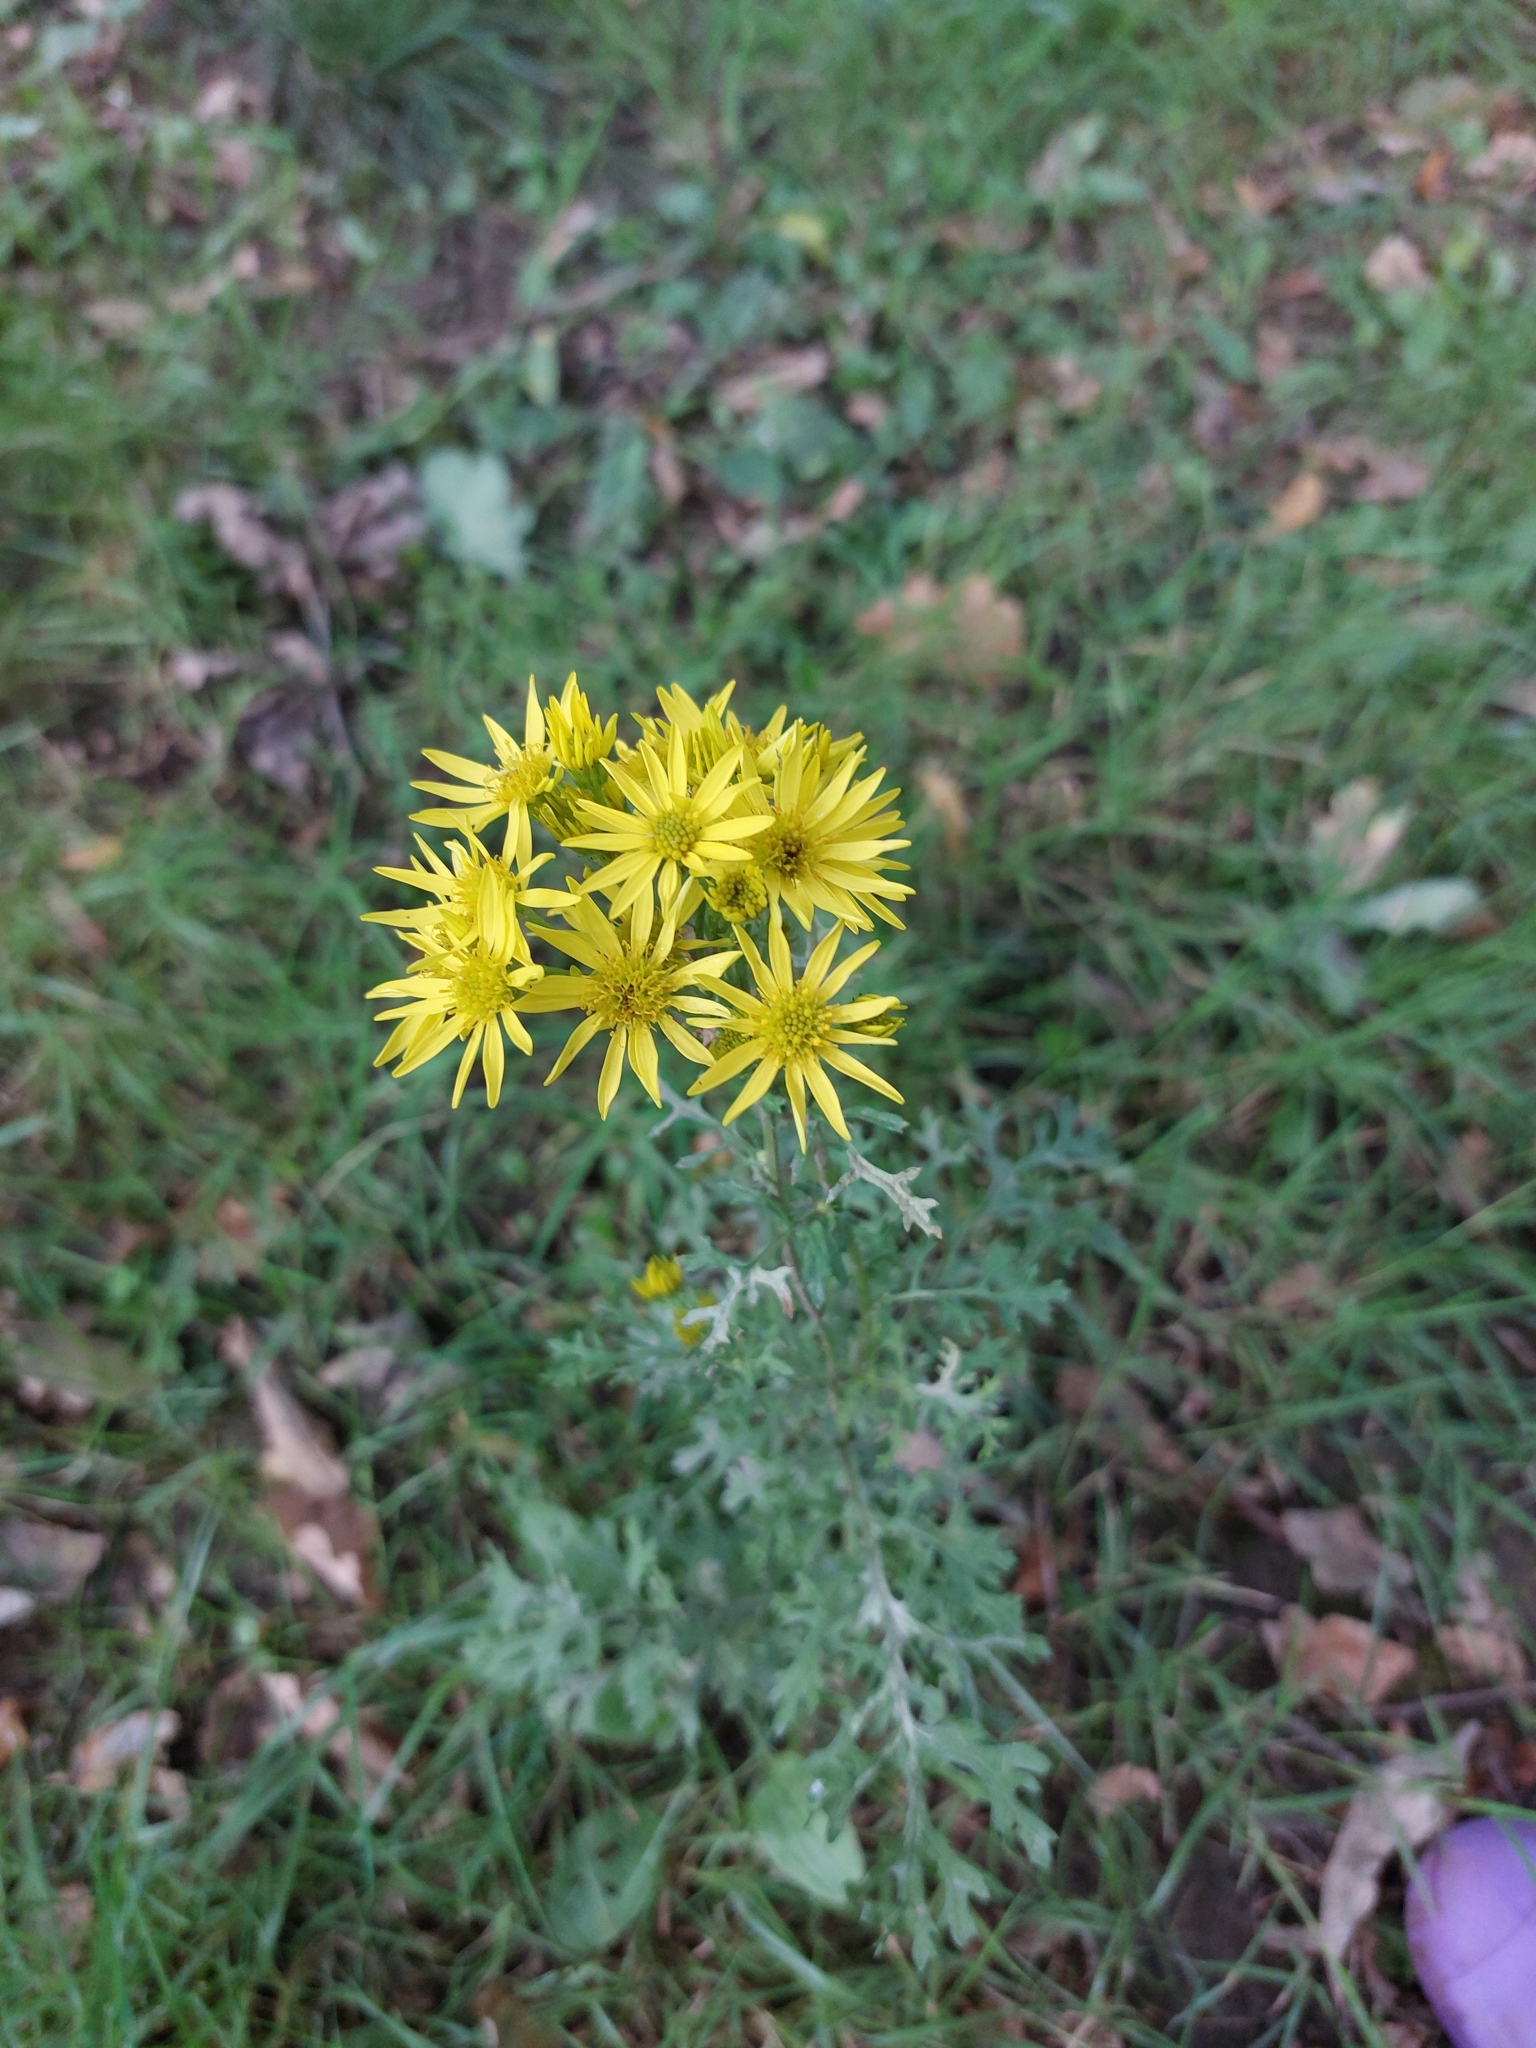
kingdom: Plantae
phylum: Tracheophyta
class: Magnoliopsida
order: Asterales
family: Asteraceae
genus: Jacobaea
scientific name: Jacobaea vulgaris
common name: Stinking willie
